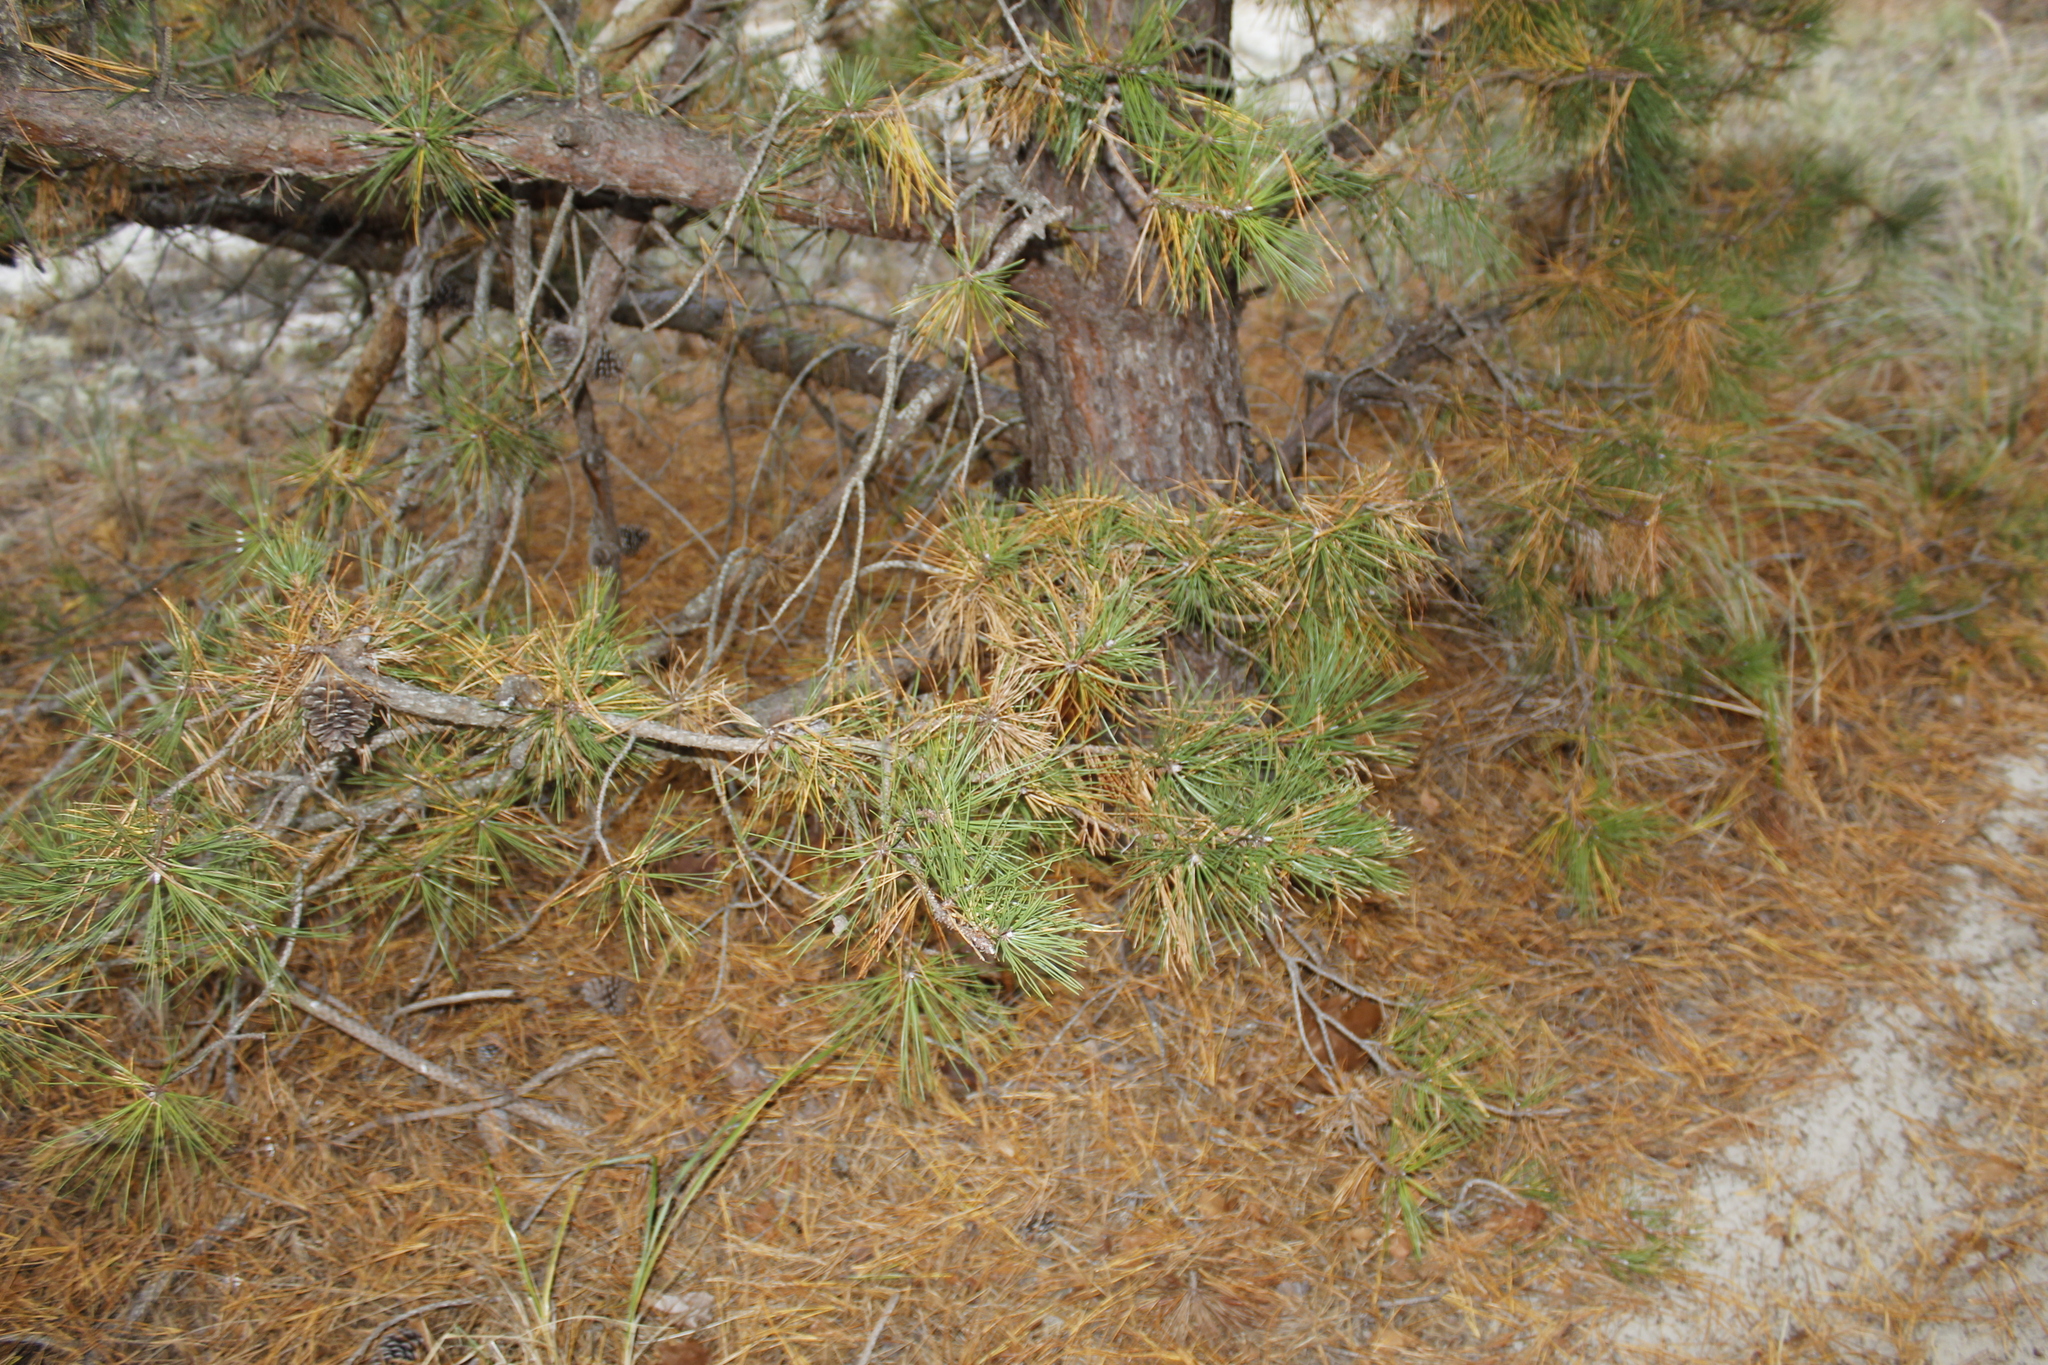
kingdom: Plantae
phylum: Tracheophyta
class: Pinopsida
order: Pinales
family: Pinaceae
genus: Pinus
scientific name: Pinus rigida
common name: Pitch pine
